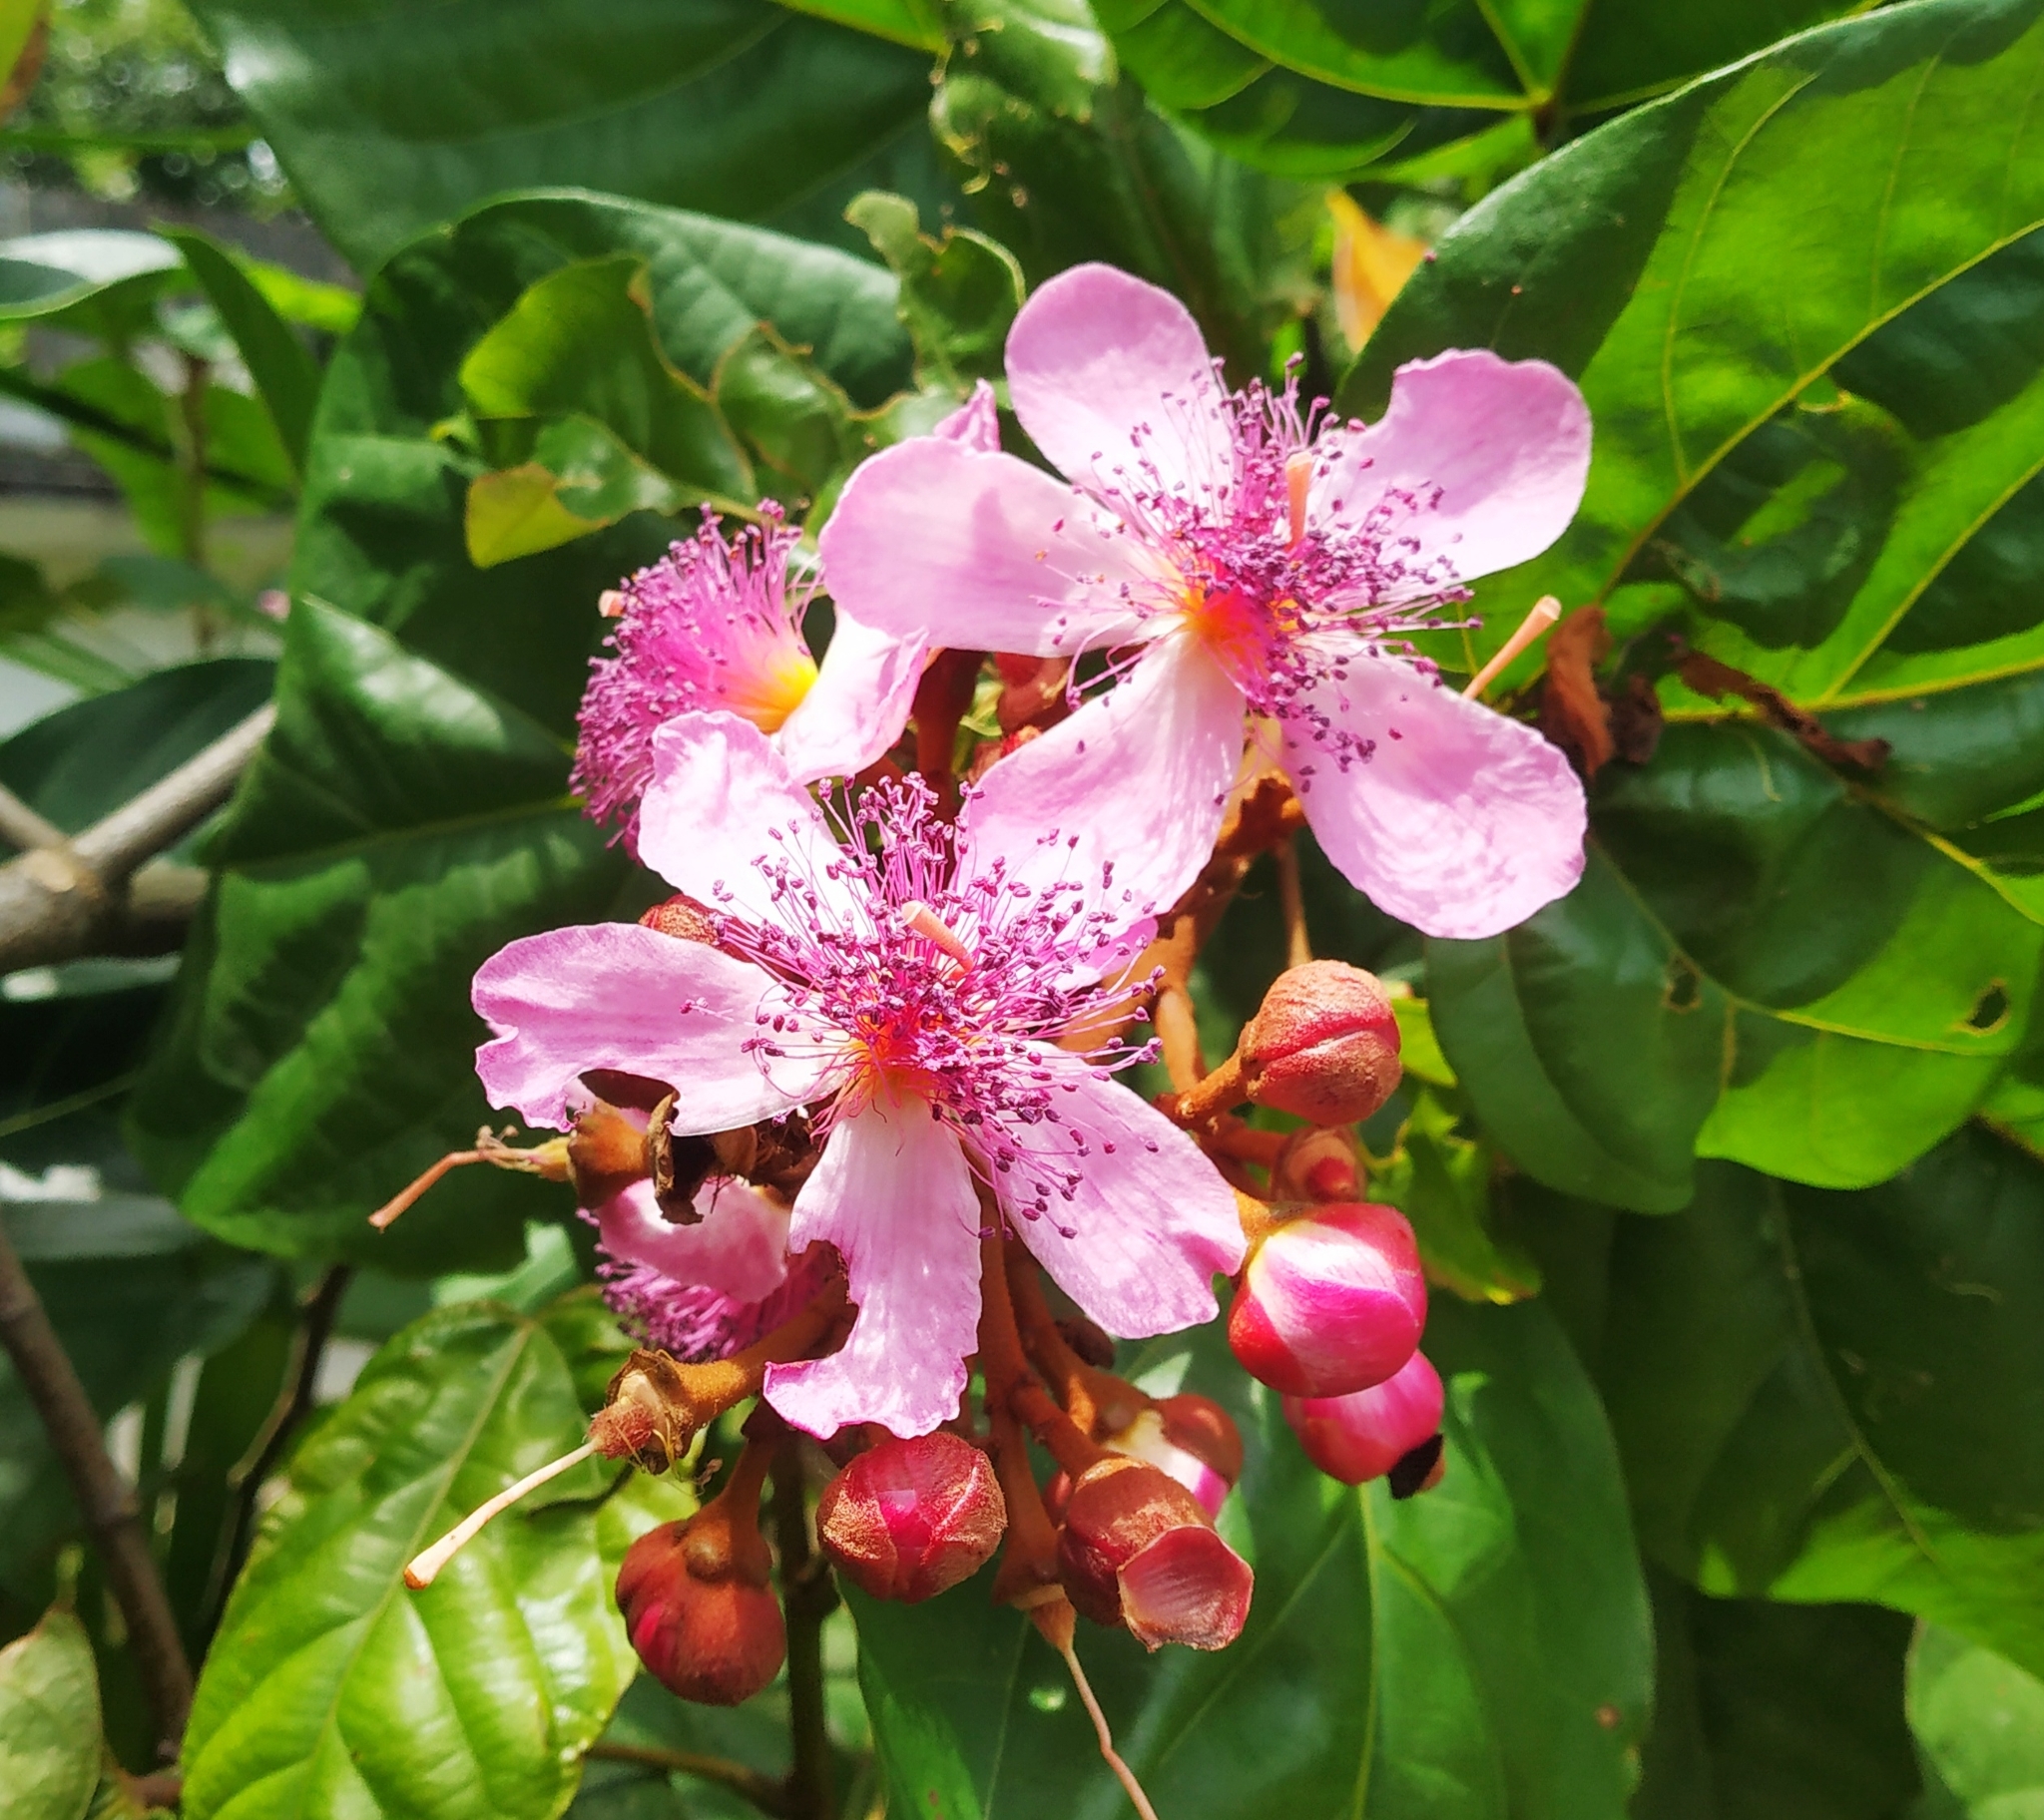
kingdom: Plantae
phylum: Tracheophyta
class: Magnoliopsida
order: Malvales
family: Bixaceae
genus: Bixa
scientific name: Bixa orellana
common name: Lipsticktree
